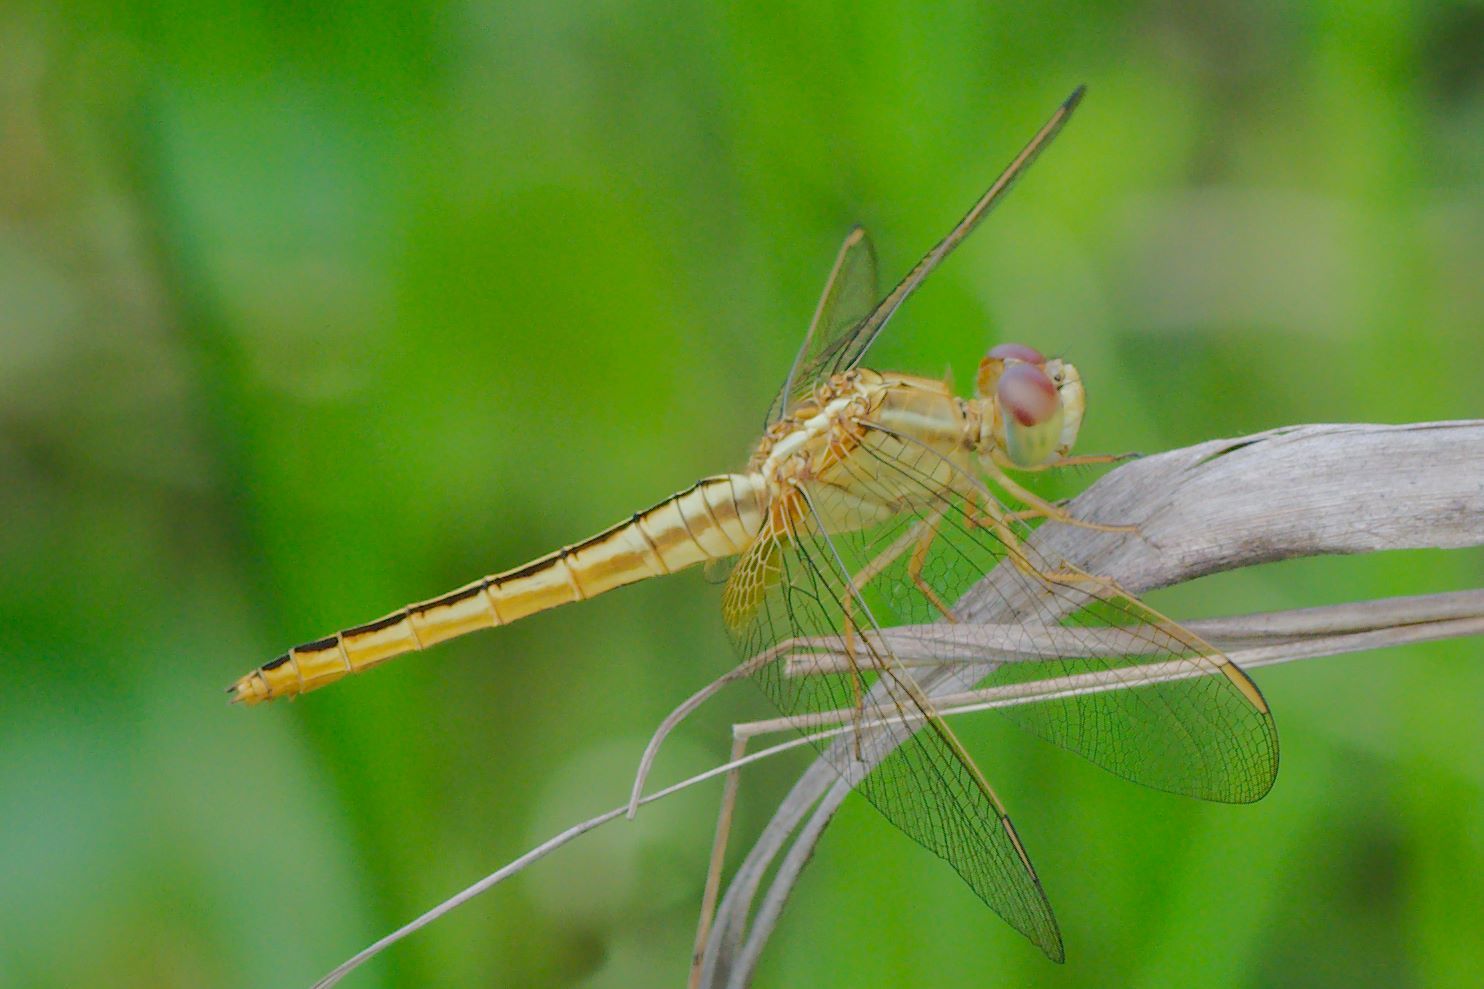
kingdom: Animalia
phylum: Arthropoda
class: Insecta
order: Odonata
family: Libellulidae
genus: Crocothemis
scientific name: Crocothemis servilia
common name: Scarlet skimmer
